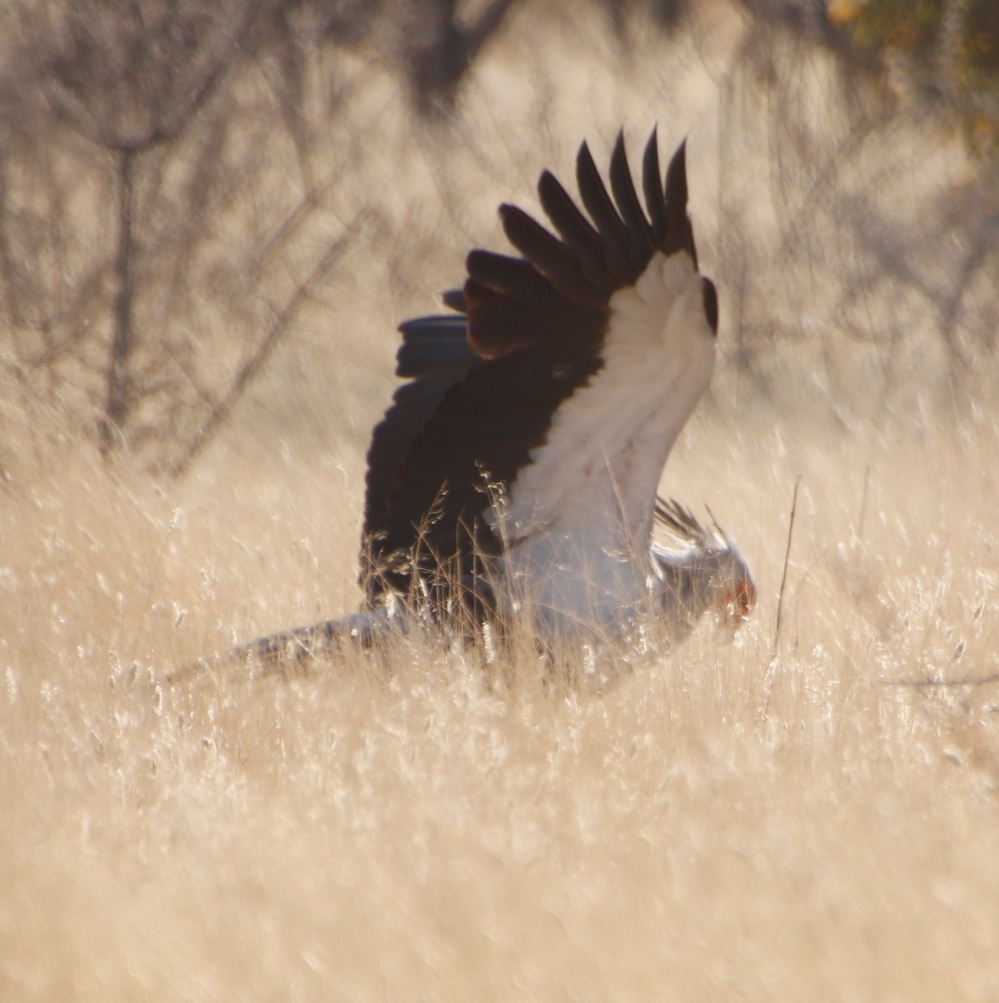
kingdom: Animalia
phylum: Chordata
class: Aves
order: Accipitriformes
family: Sagittariidae
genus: Sagittarius
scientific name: Sagittarius serpentarius
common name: Secretarybird
